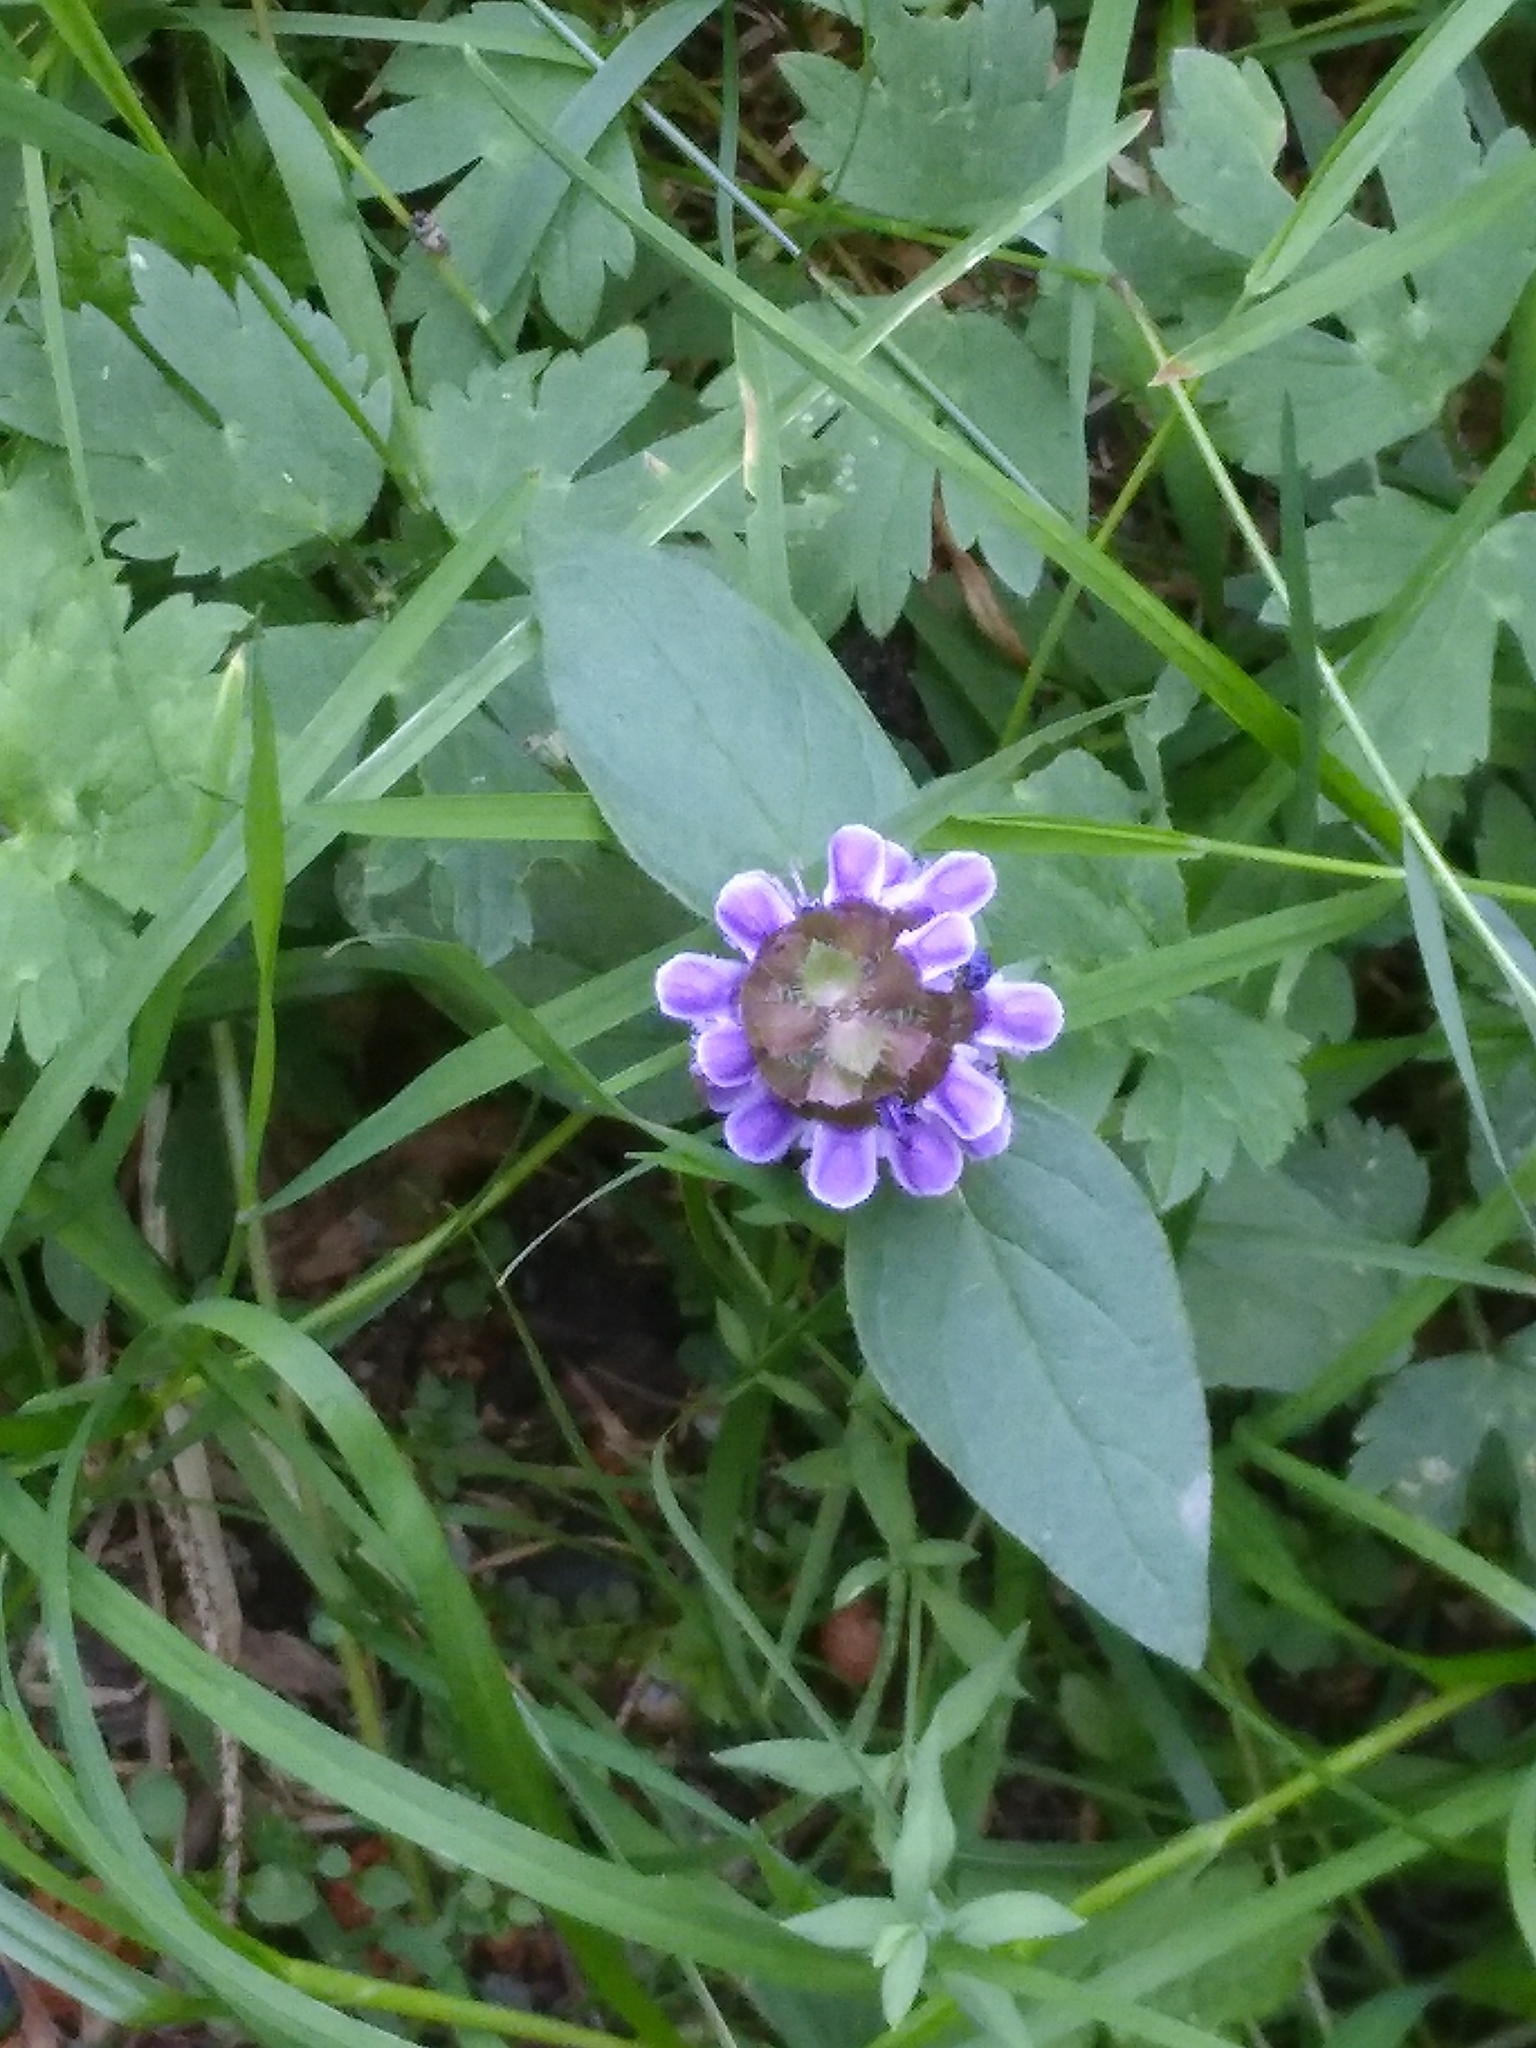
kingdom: Plantae
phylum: Tracheophyta
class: Magnoliopsida
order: Lamiales
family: Lamiaceae
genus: Prunella
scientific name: Prunella vulgaris
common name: Heal-all
